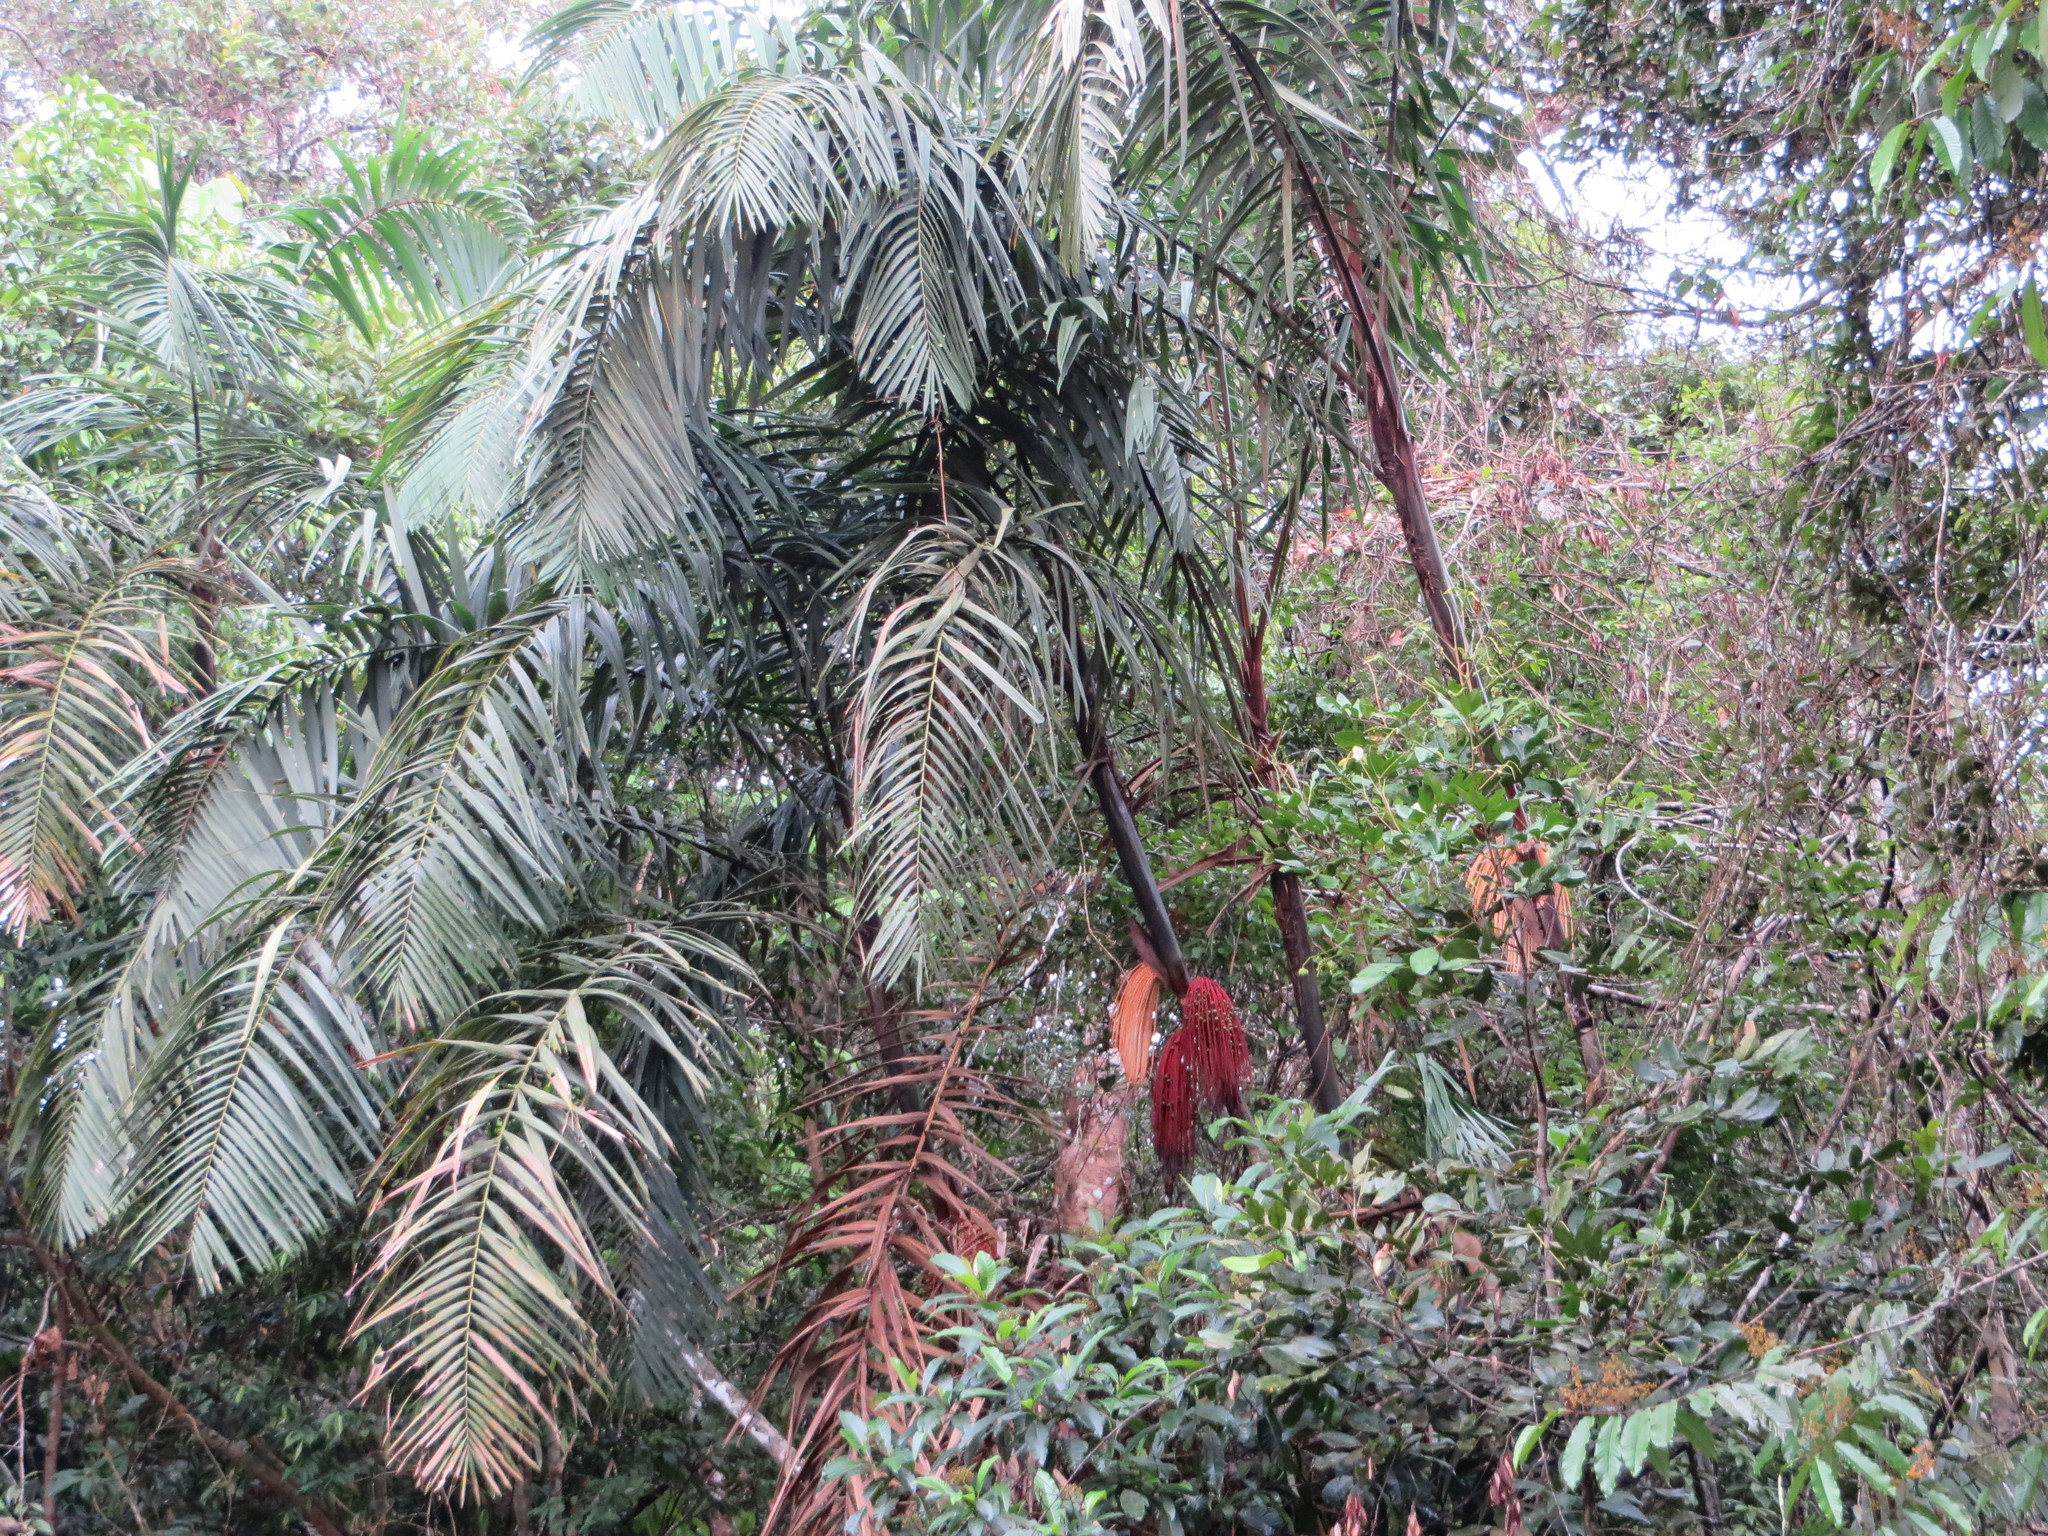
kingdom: Plantae
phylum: Tracheophyta
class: Liliopsida
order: Arecales
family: Arecaceae
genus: Oenocarpus
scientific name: Oenocarpus mapora
